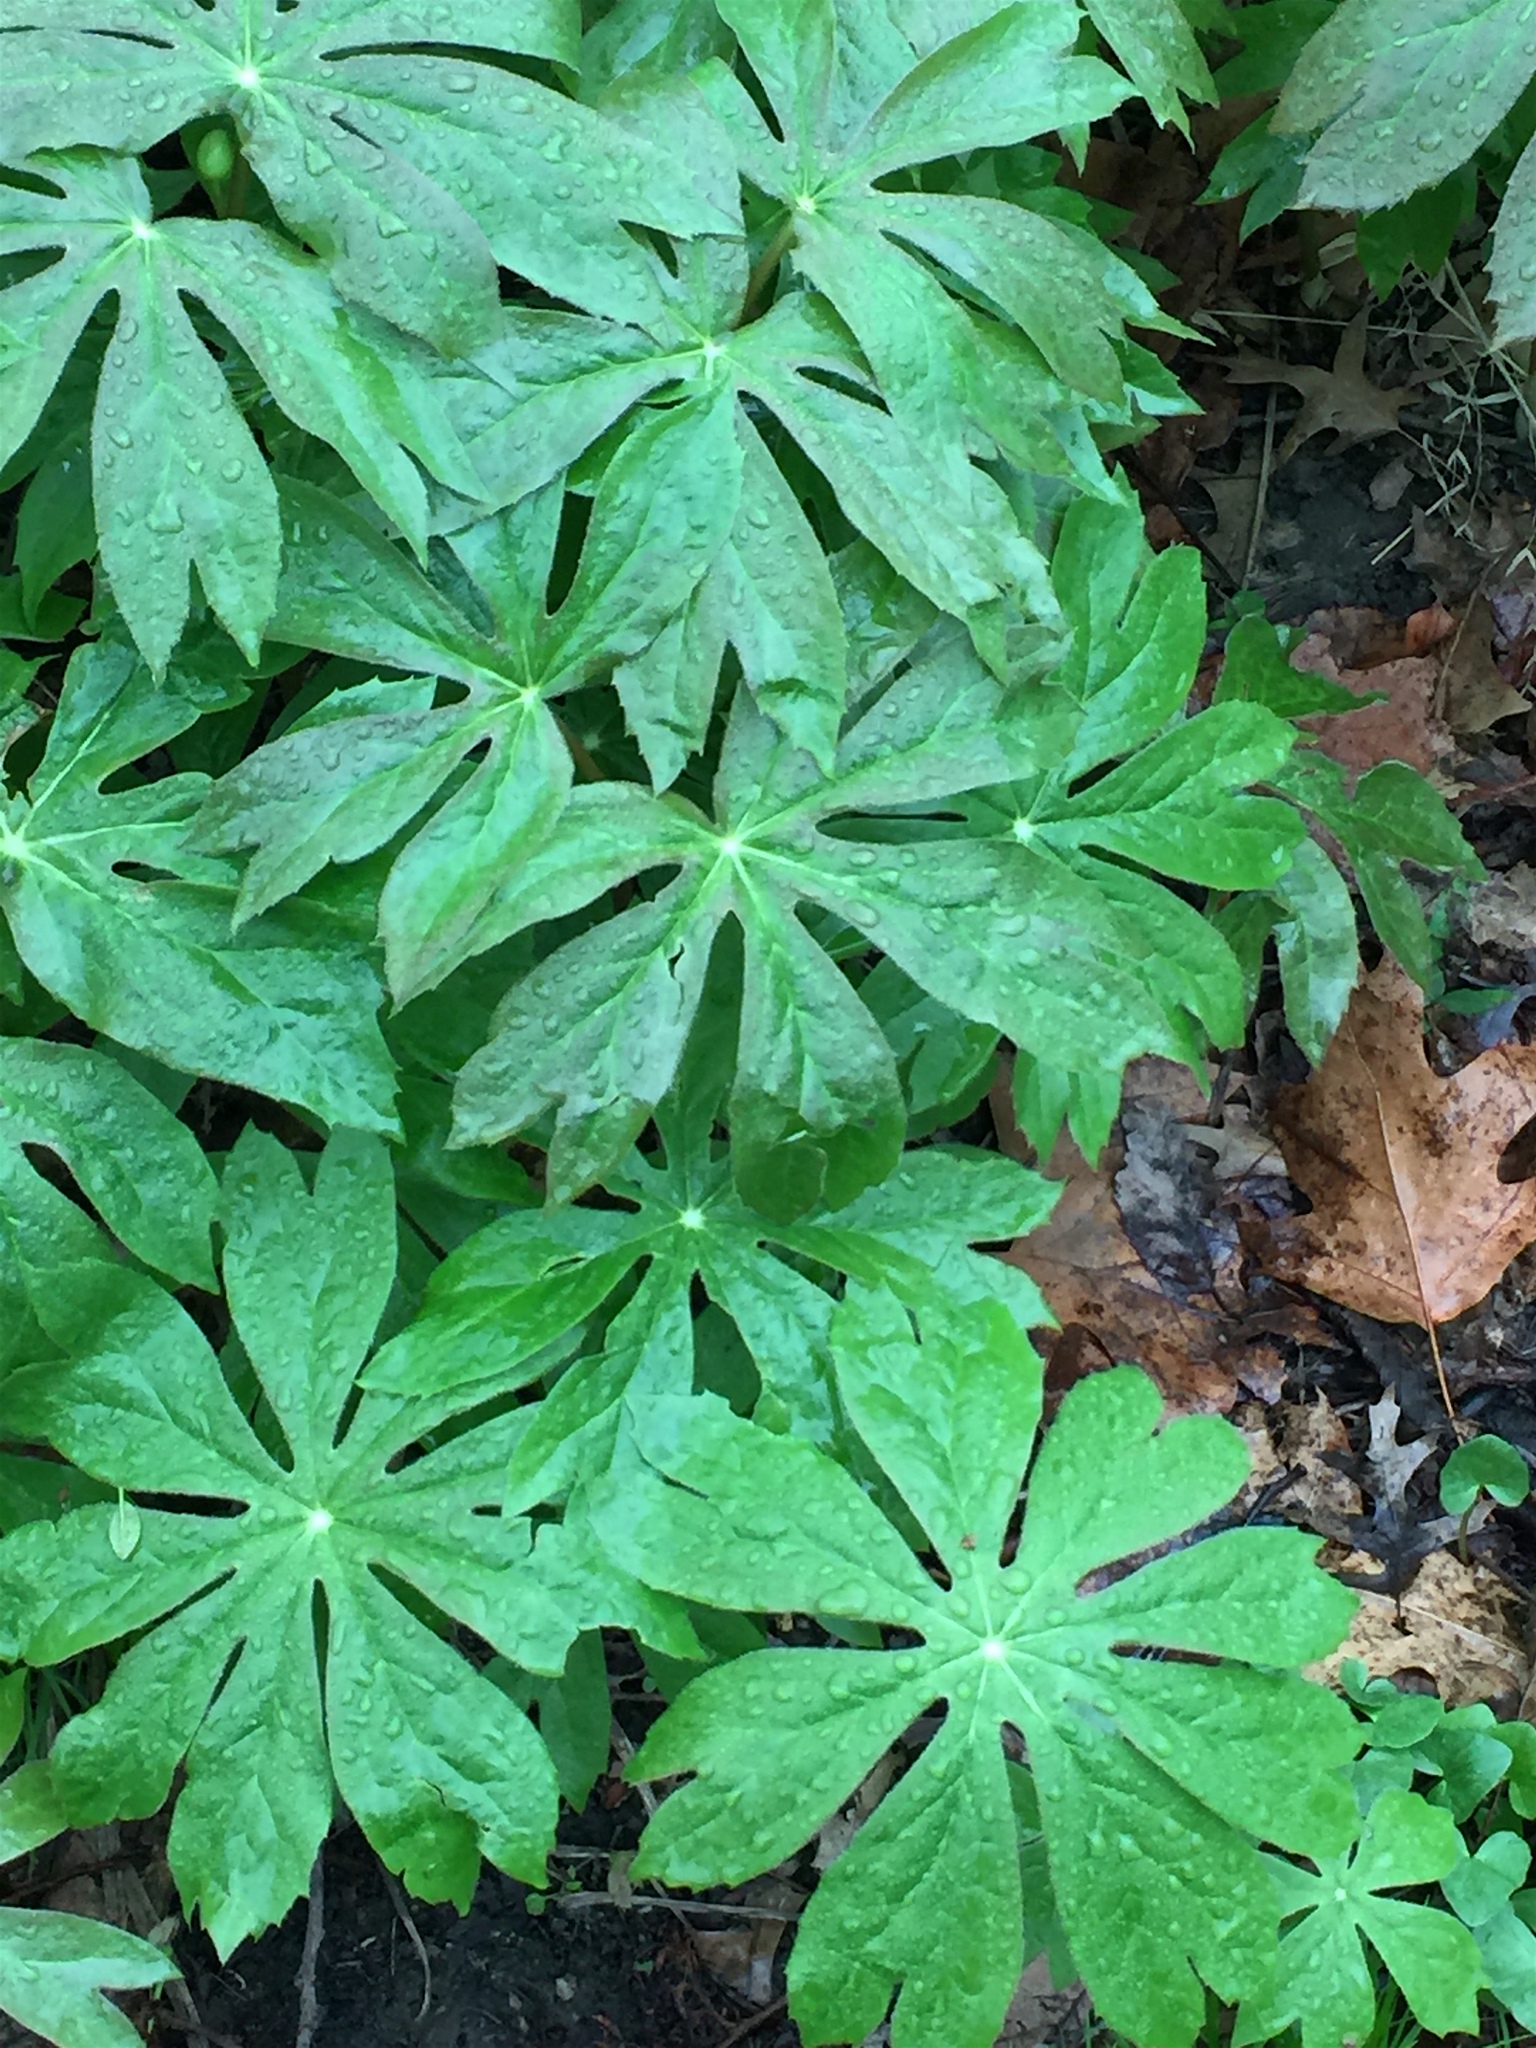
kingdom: Plantae
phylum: Tracheophyta
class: Magnoliopsida
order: Ranunculales
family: Berberidaceae
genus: Podophyllum
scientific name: Podophyllum peltatum
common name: Wild mandrake
